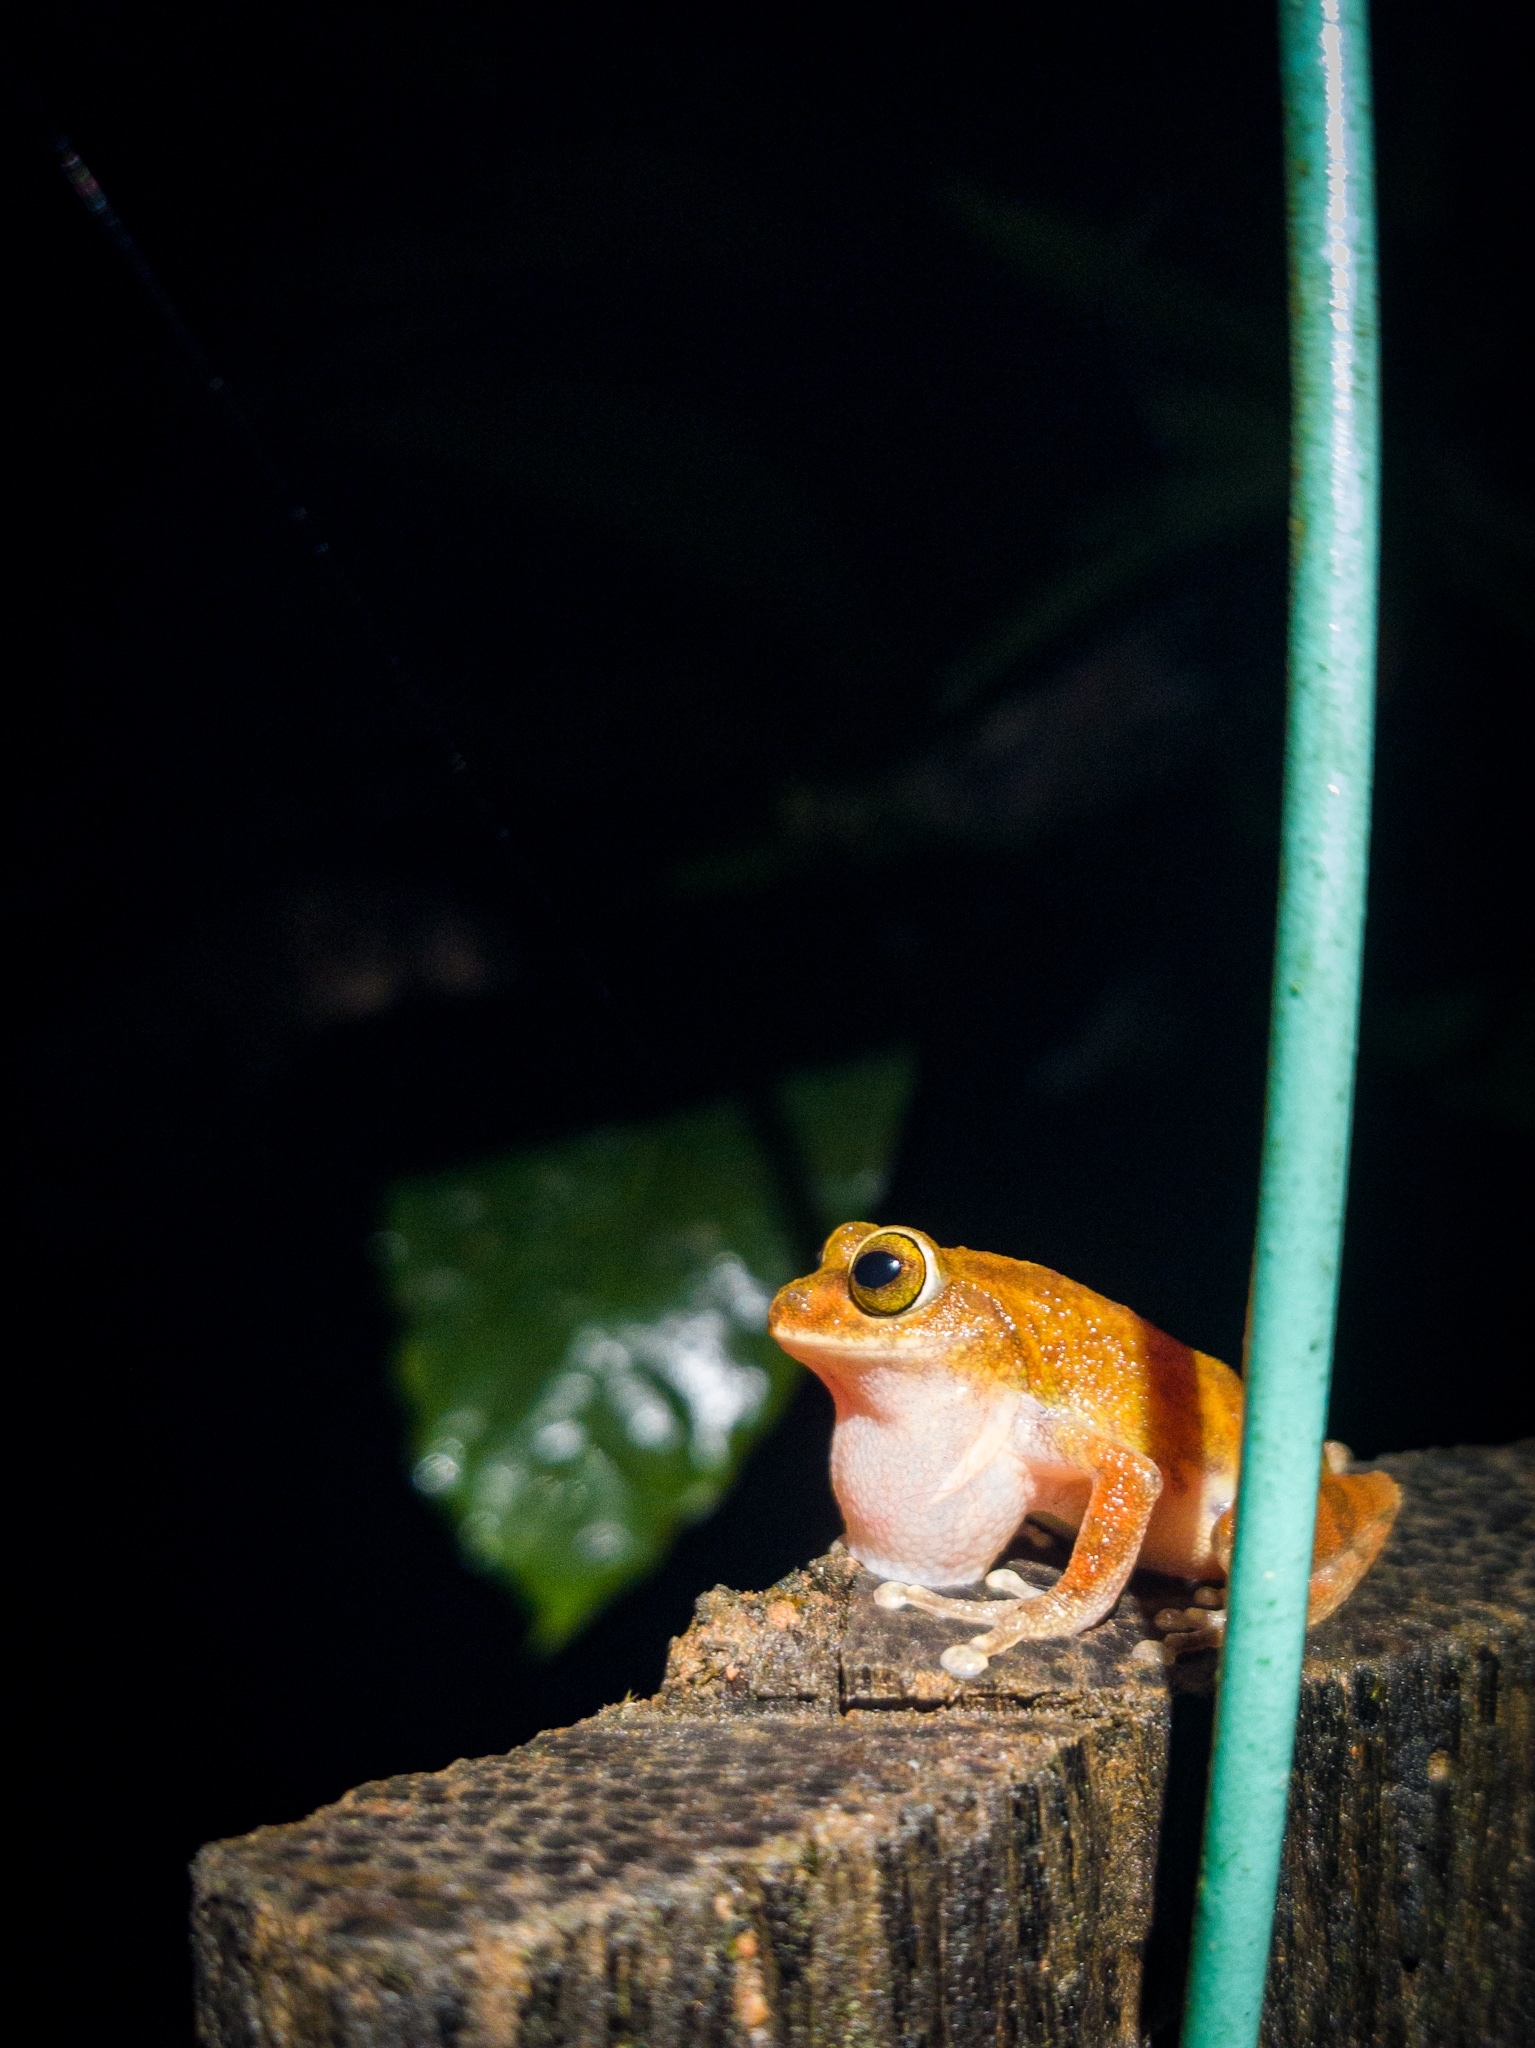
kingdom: Animalia
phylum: Chordata
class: Amphibia
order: Anura
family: Rhacophoridae
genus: Raorchestes
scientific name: Raorchestes ponmudi
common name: Large ponmudi bush frog
